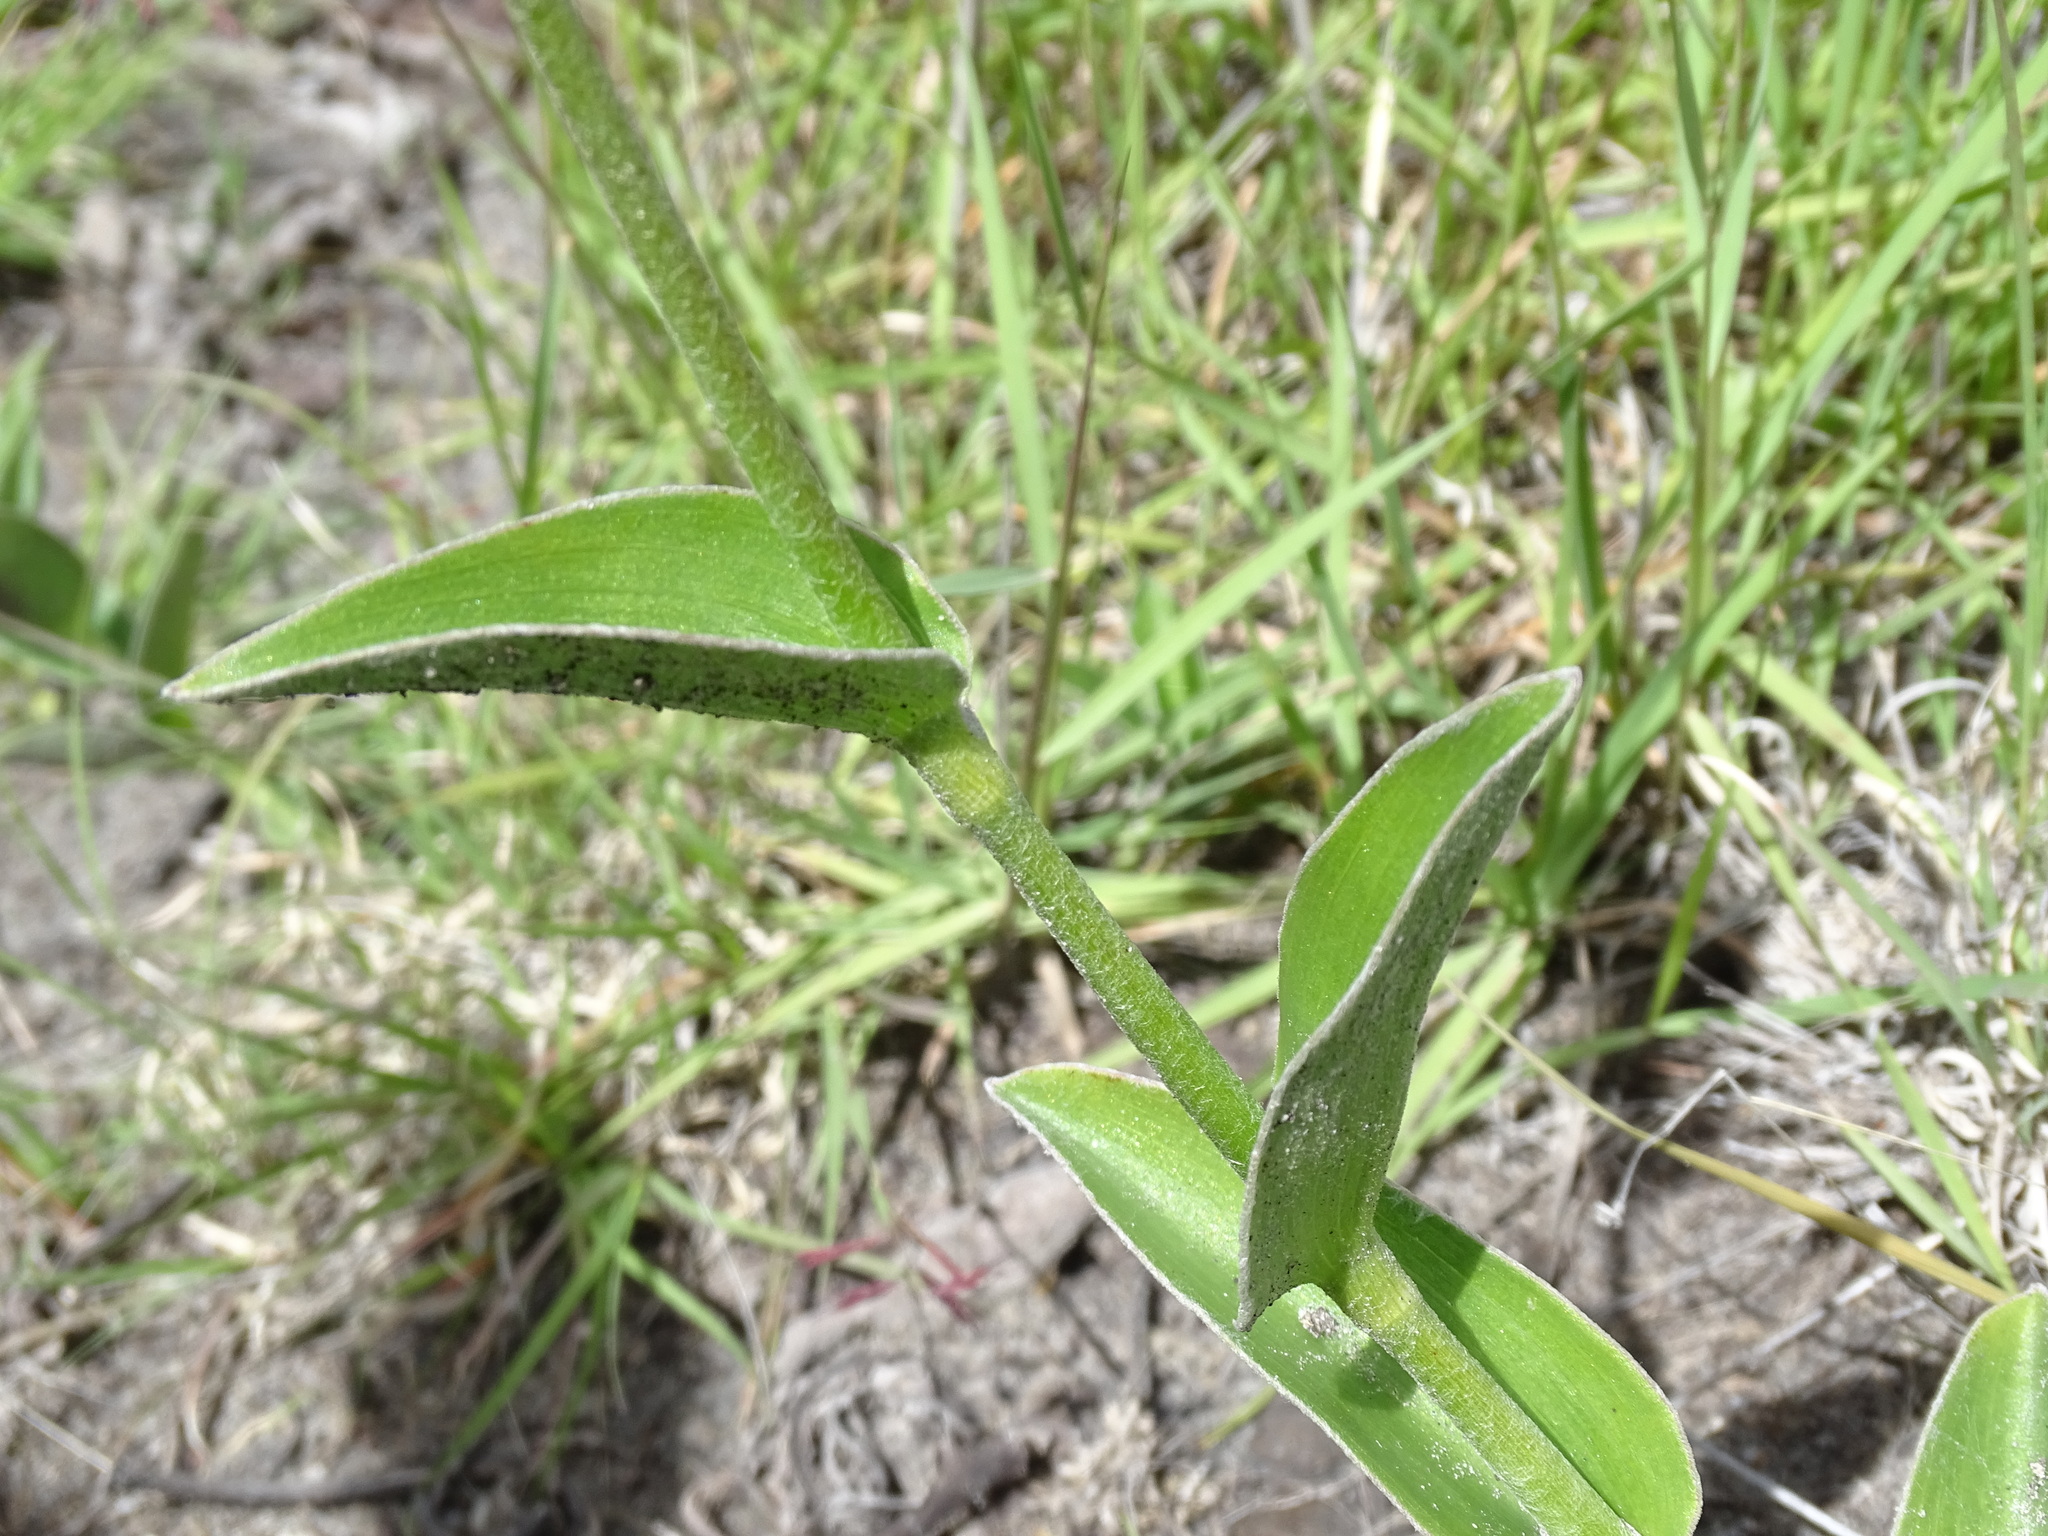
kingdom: Plantae
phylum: Tracheophyta
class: Liliopsida
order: Commelinales
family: Commelinaceae
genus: Tradescantia
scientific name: Tradescantia crassifolia
